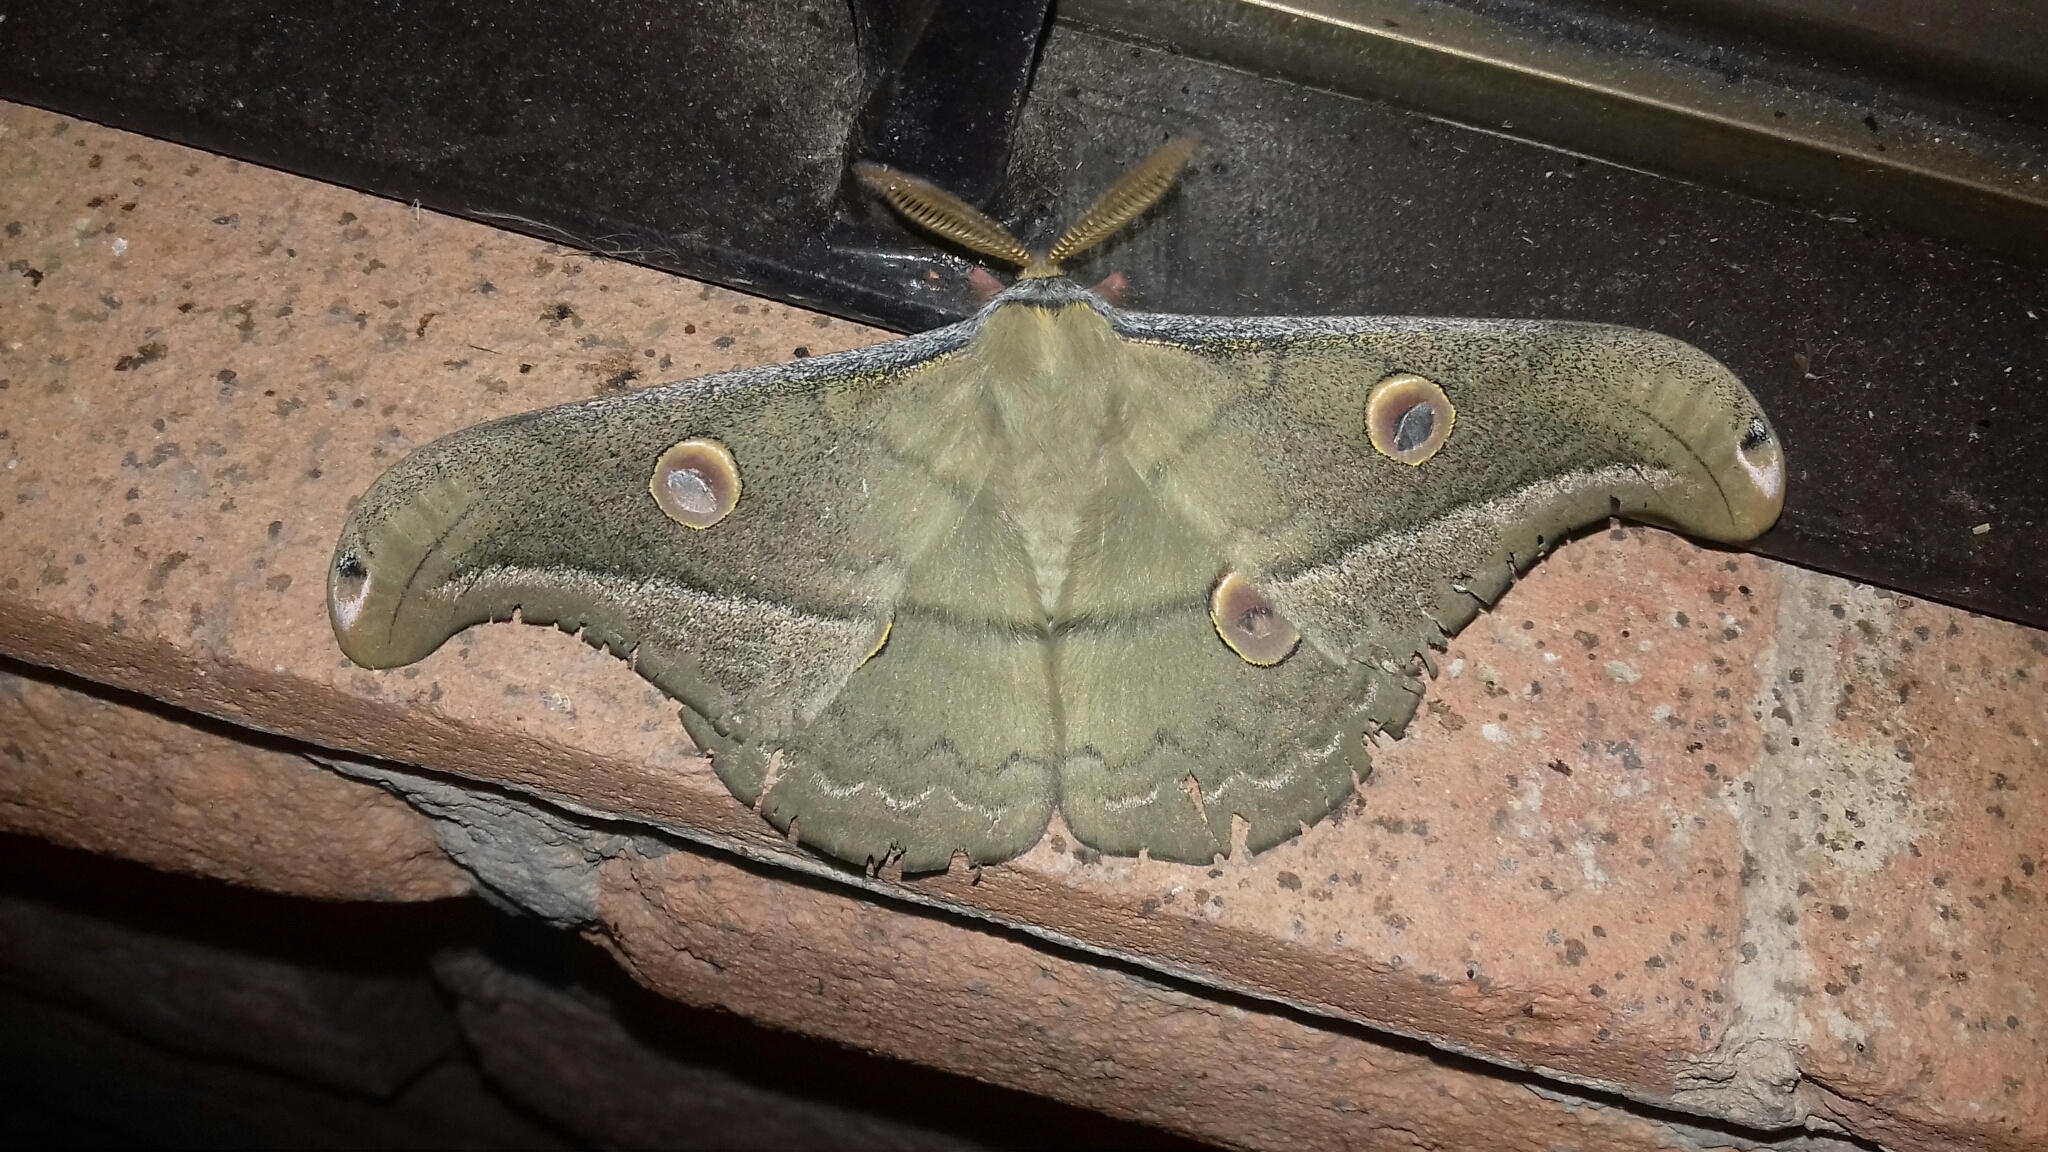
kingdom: Animalia
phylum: Arthropoda
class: Insecta
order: Lepidoptera
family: Saturniidae
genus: Copaxa
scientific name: Copaxa lavendera
